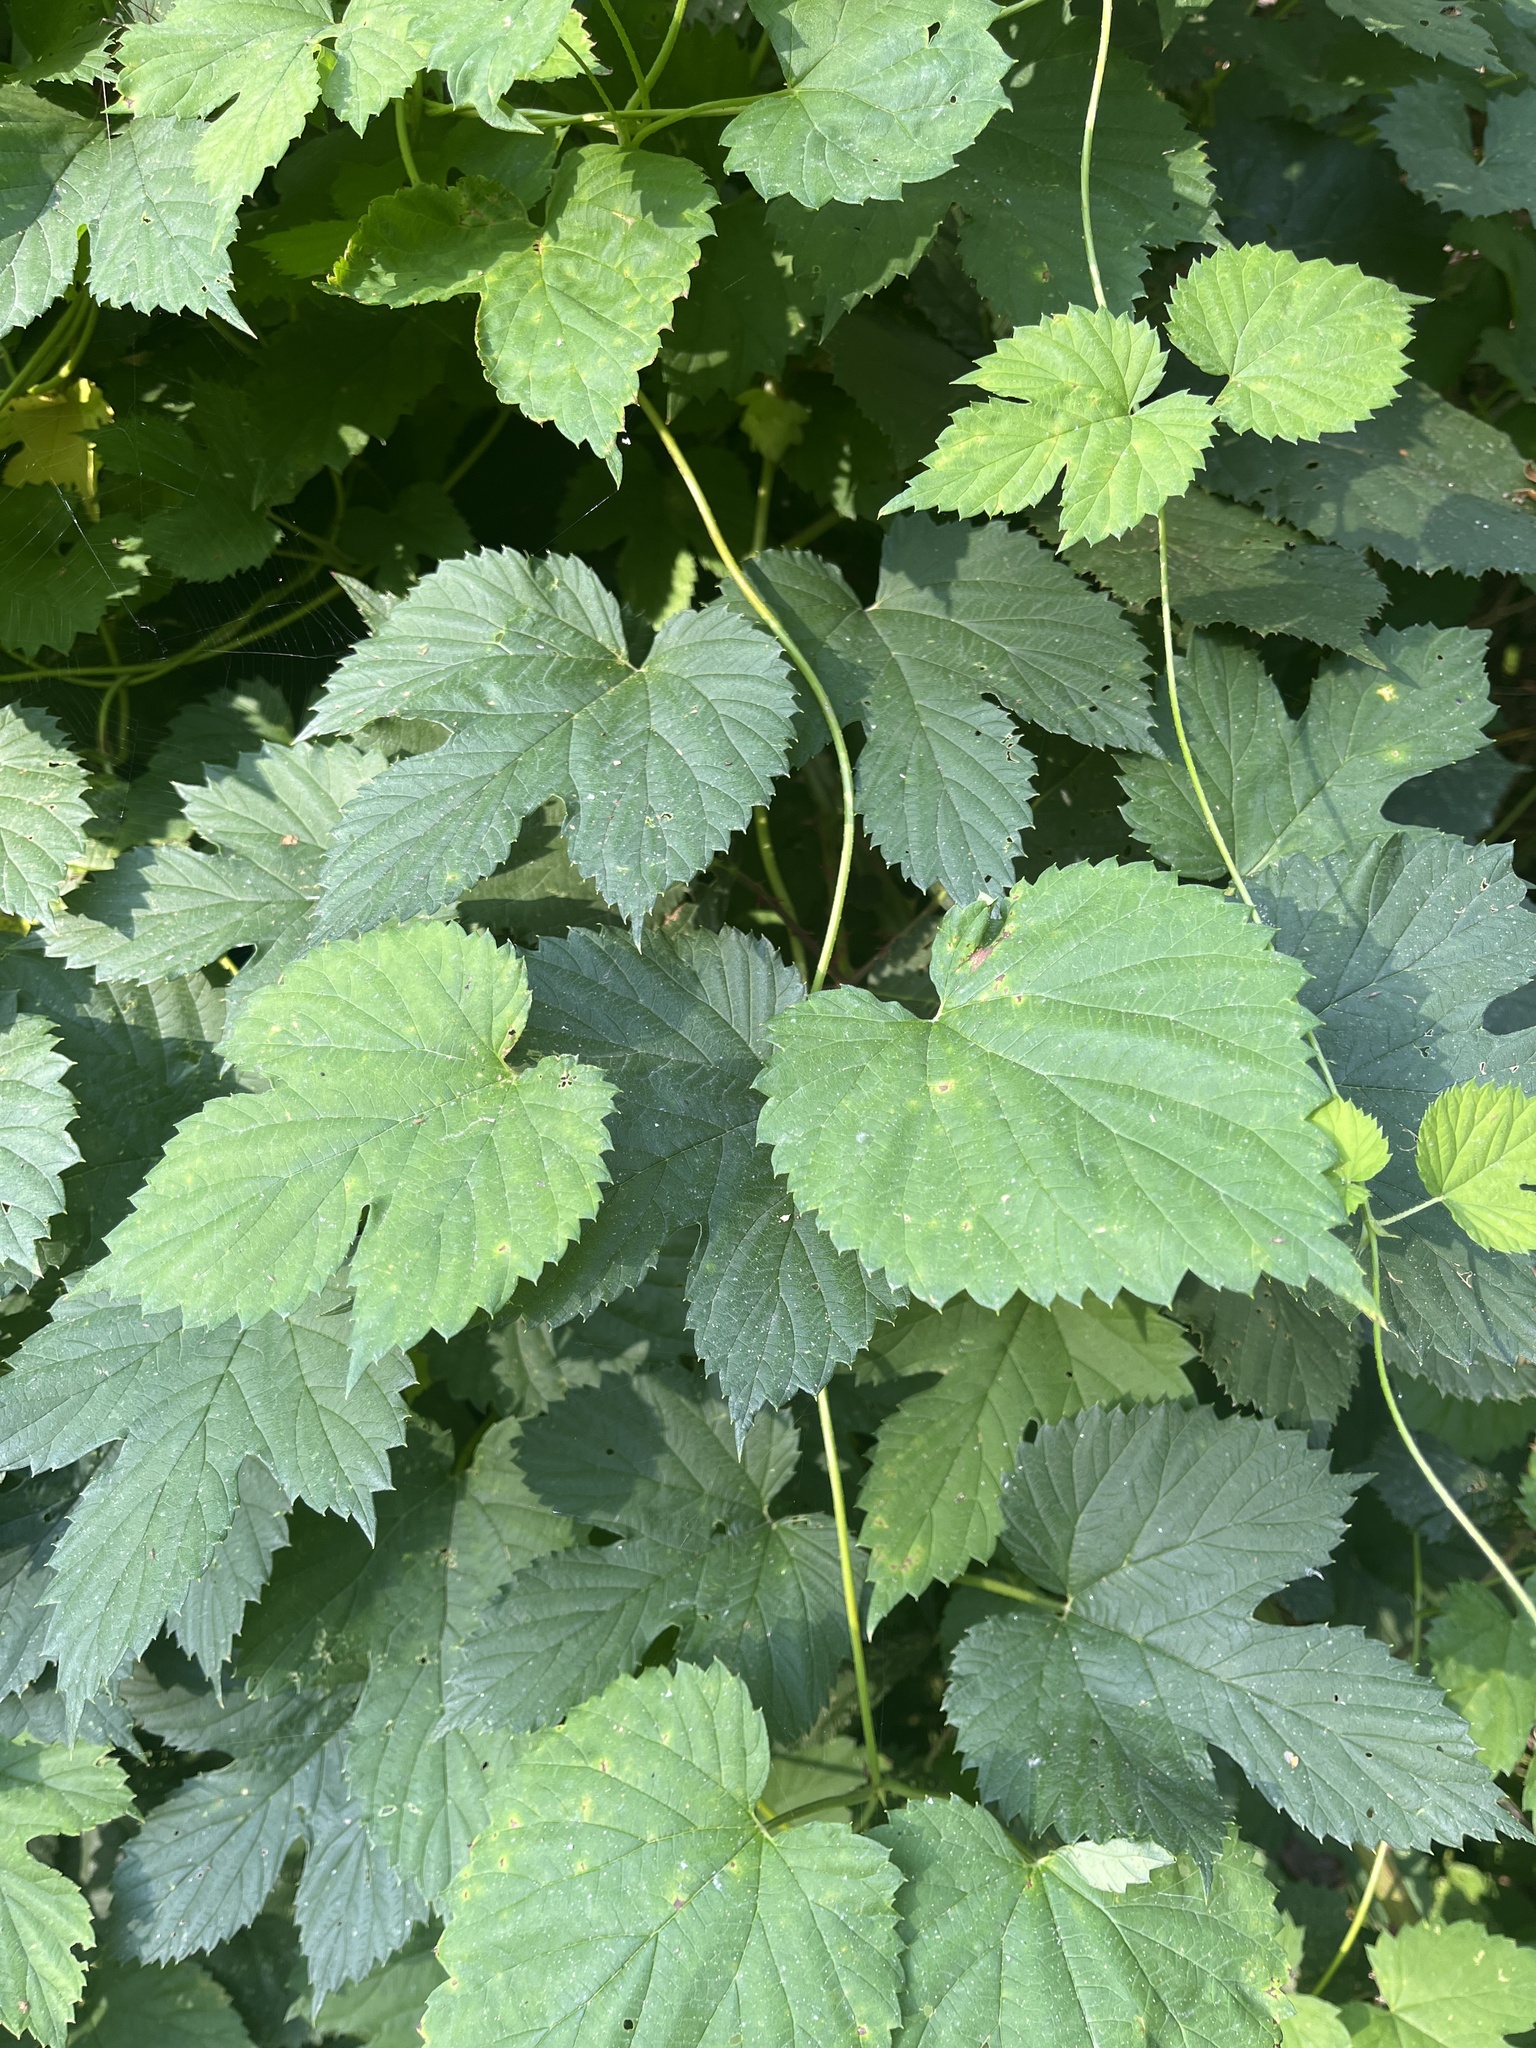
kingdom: Plantae
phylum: Tracheophyta
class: Magnoliopsida
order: Rosales
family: Cannabaceae
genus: Humulus
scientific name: Humulus lupulus
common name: Hop
